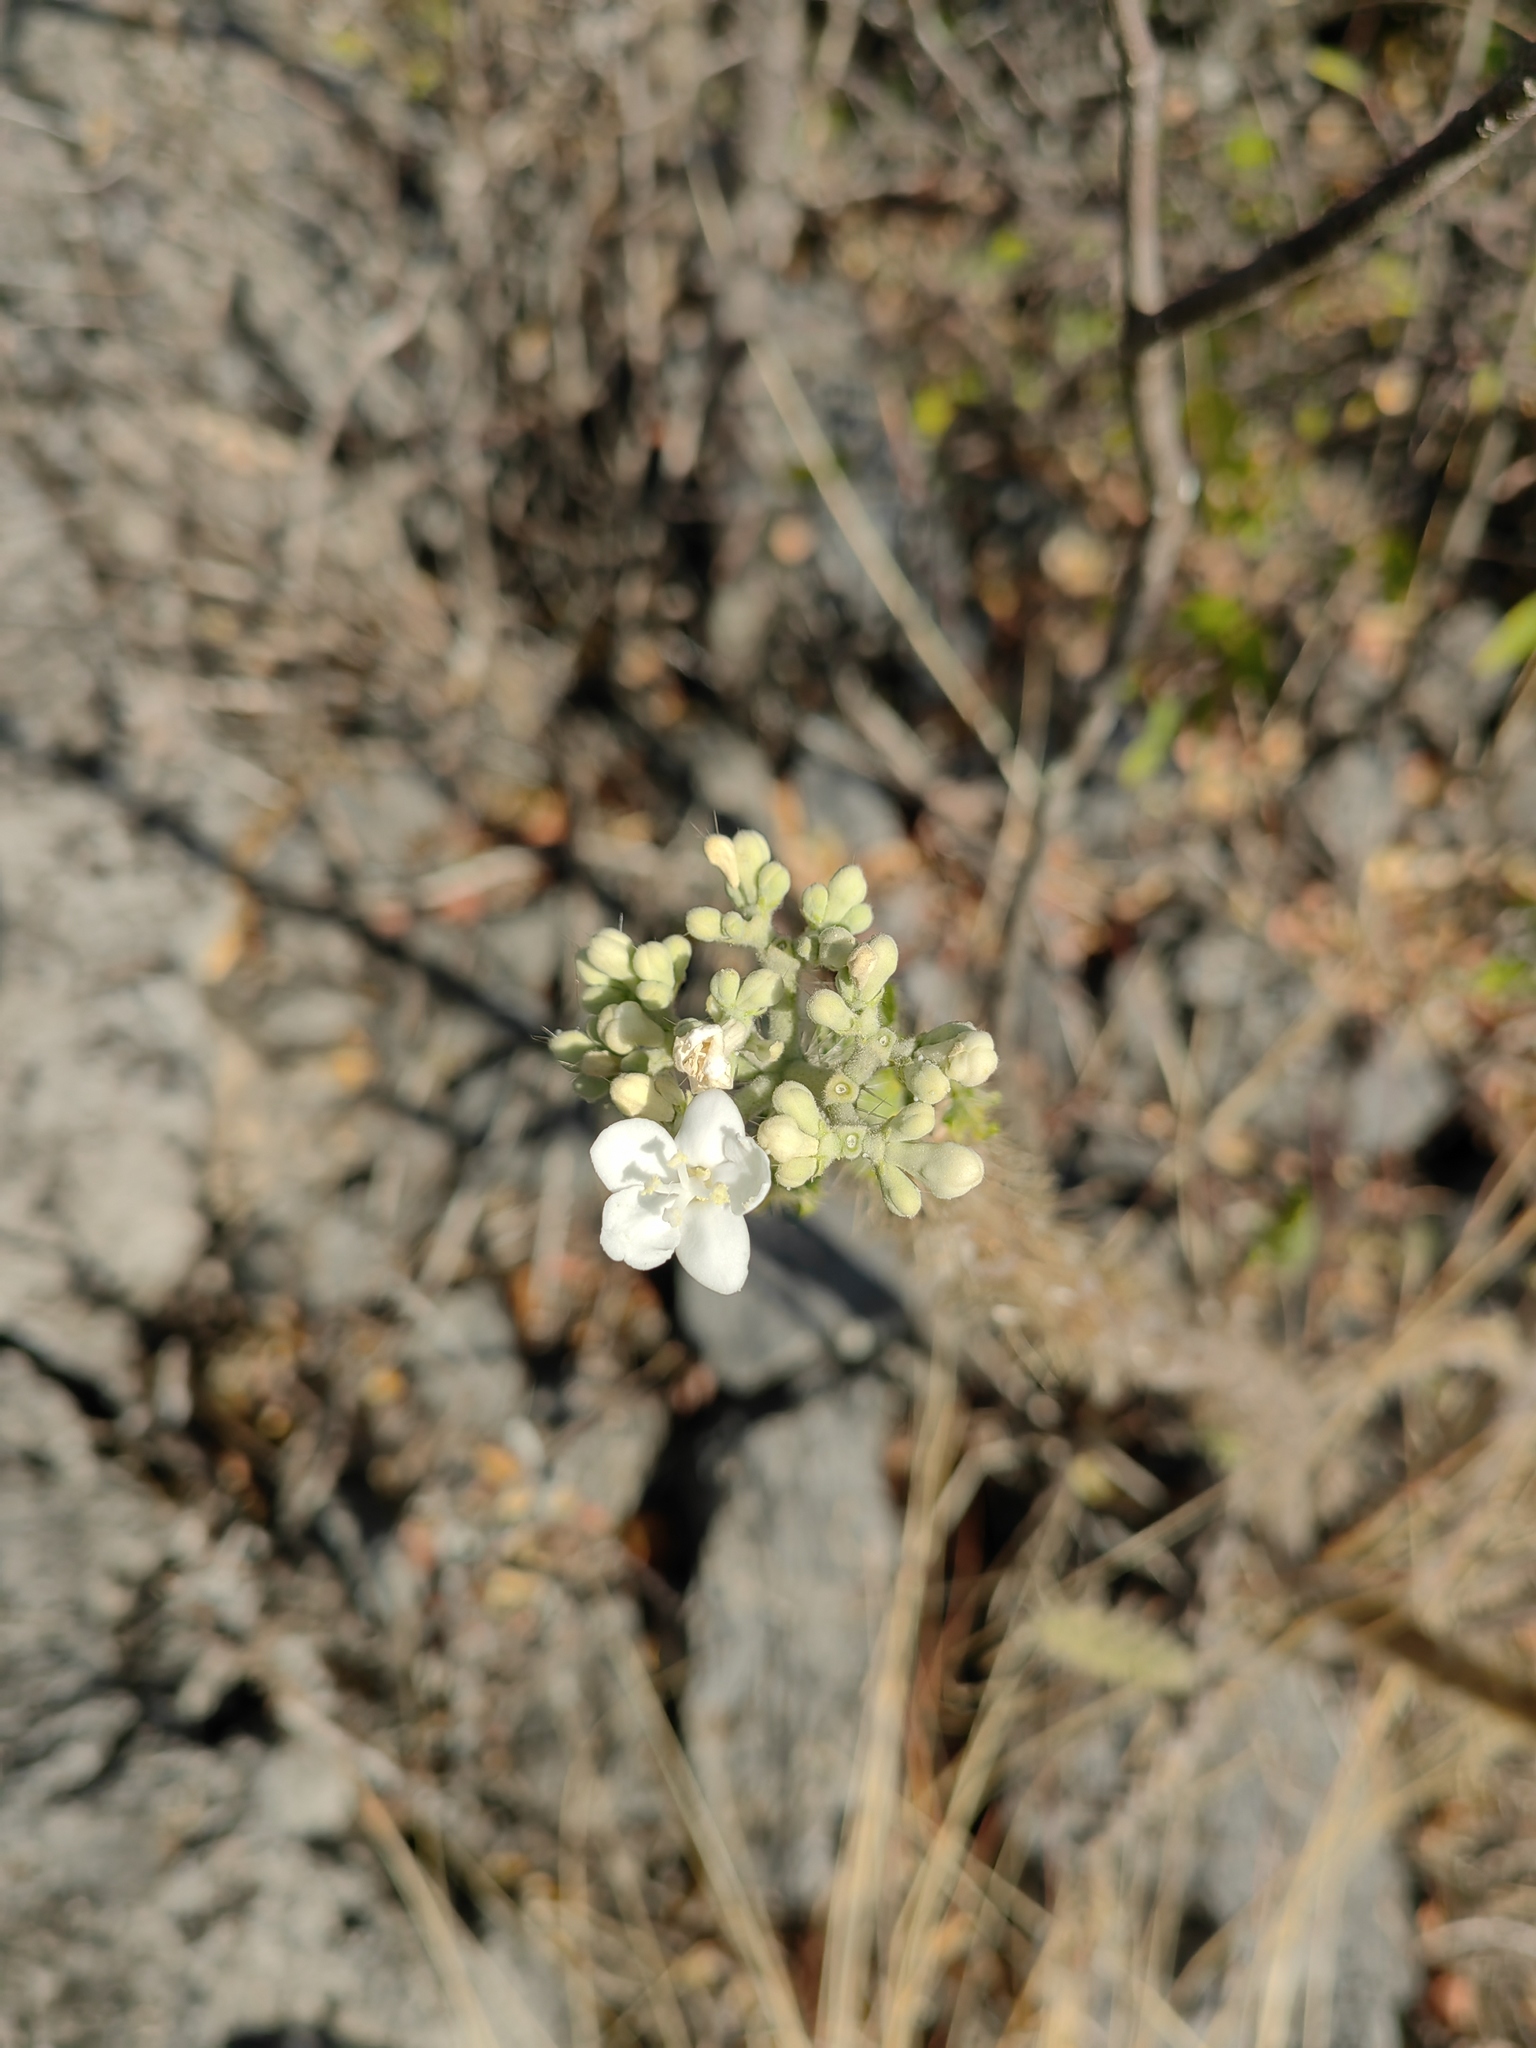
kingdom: Plantae
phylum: Tracheophyta
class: Magnoliopsida
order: Malpighiales
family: Euphorbiaceae
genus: Cnidoscolus
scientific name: Cnidoscolus multilobus
